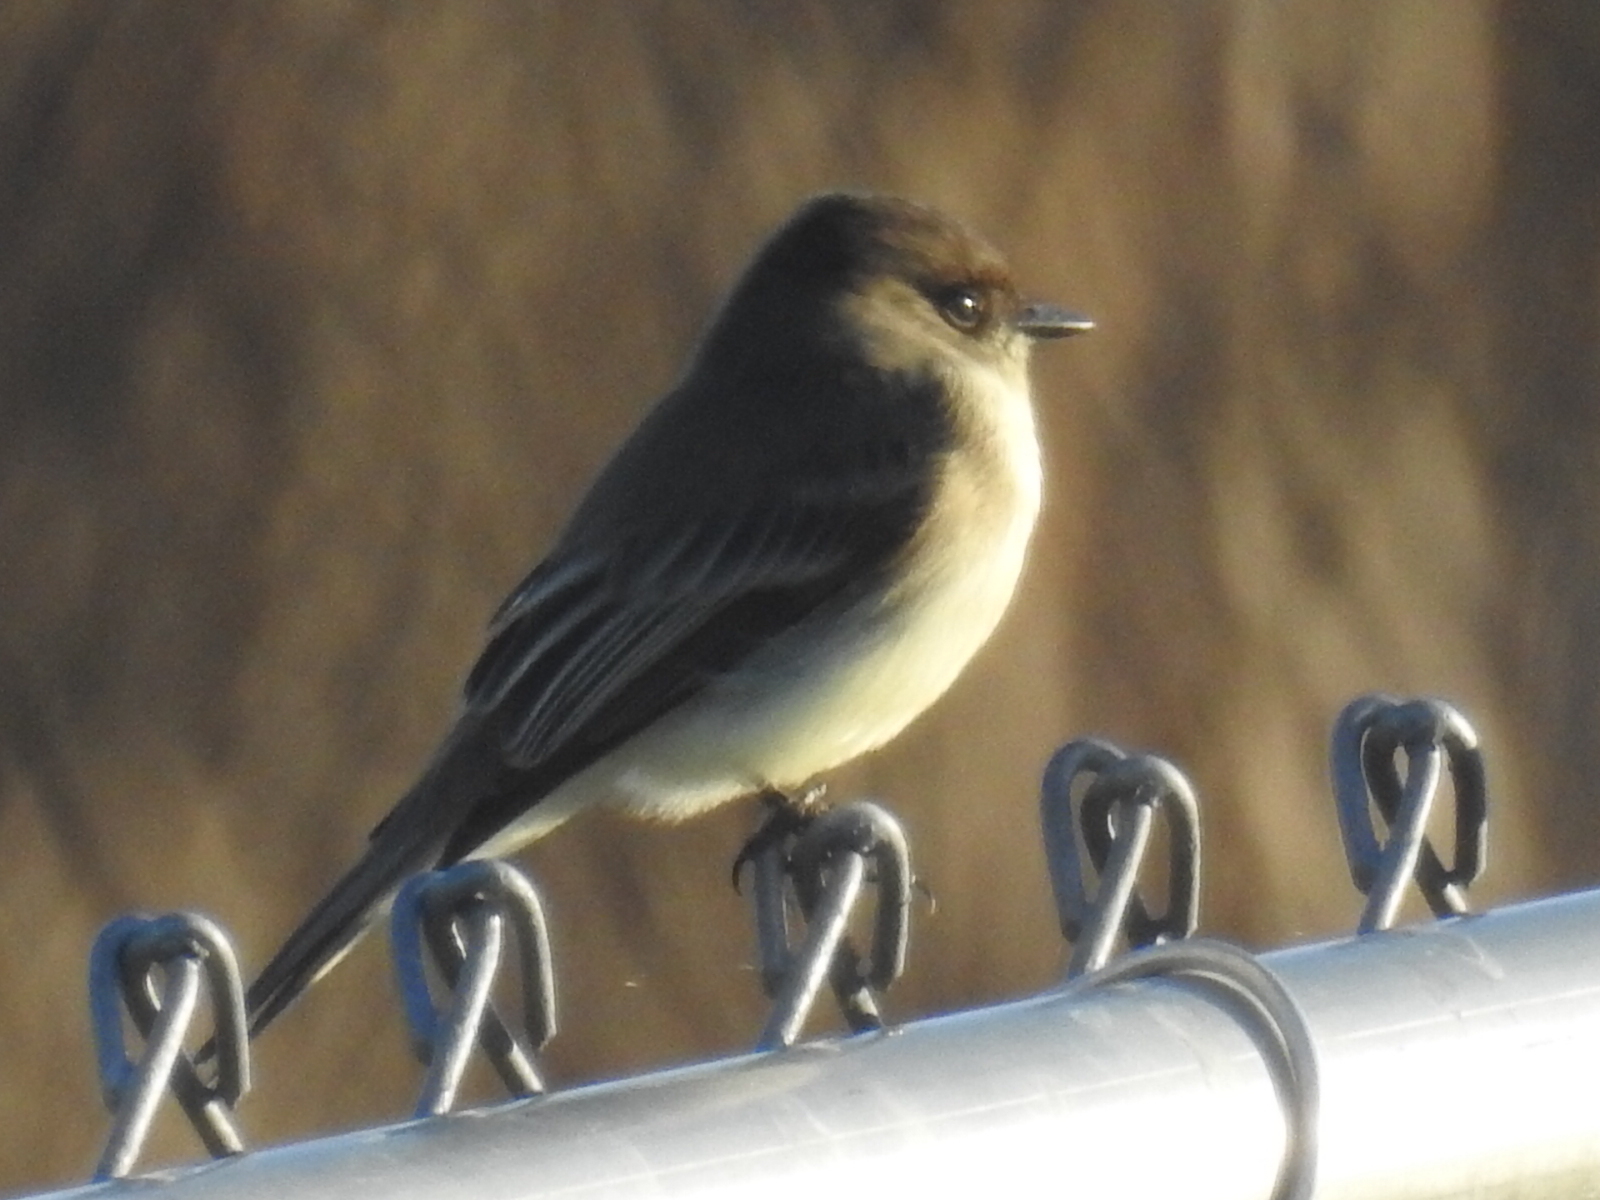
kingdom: Animalia
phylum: Chordata
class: Aves
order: Passeriformes
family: Tyrannidae
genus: Sayornis
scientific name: Sayornis phoebe
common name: Eastern phoebe
